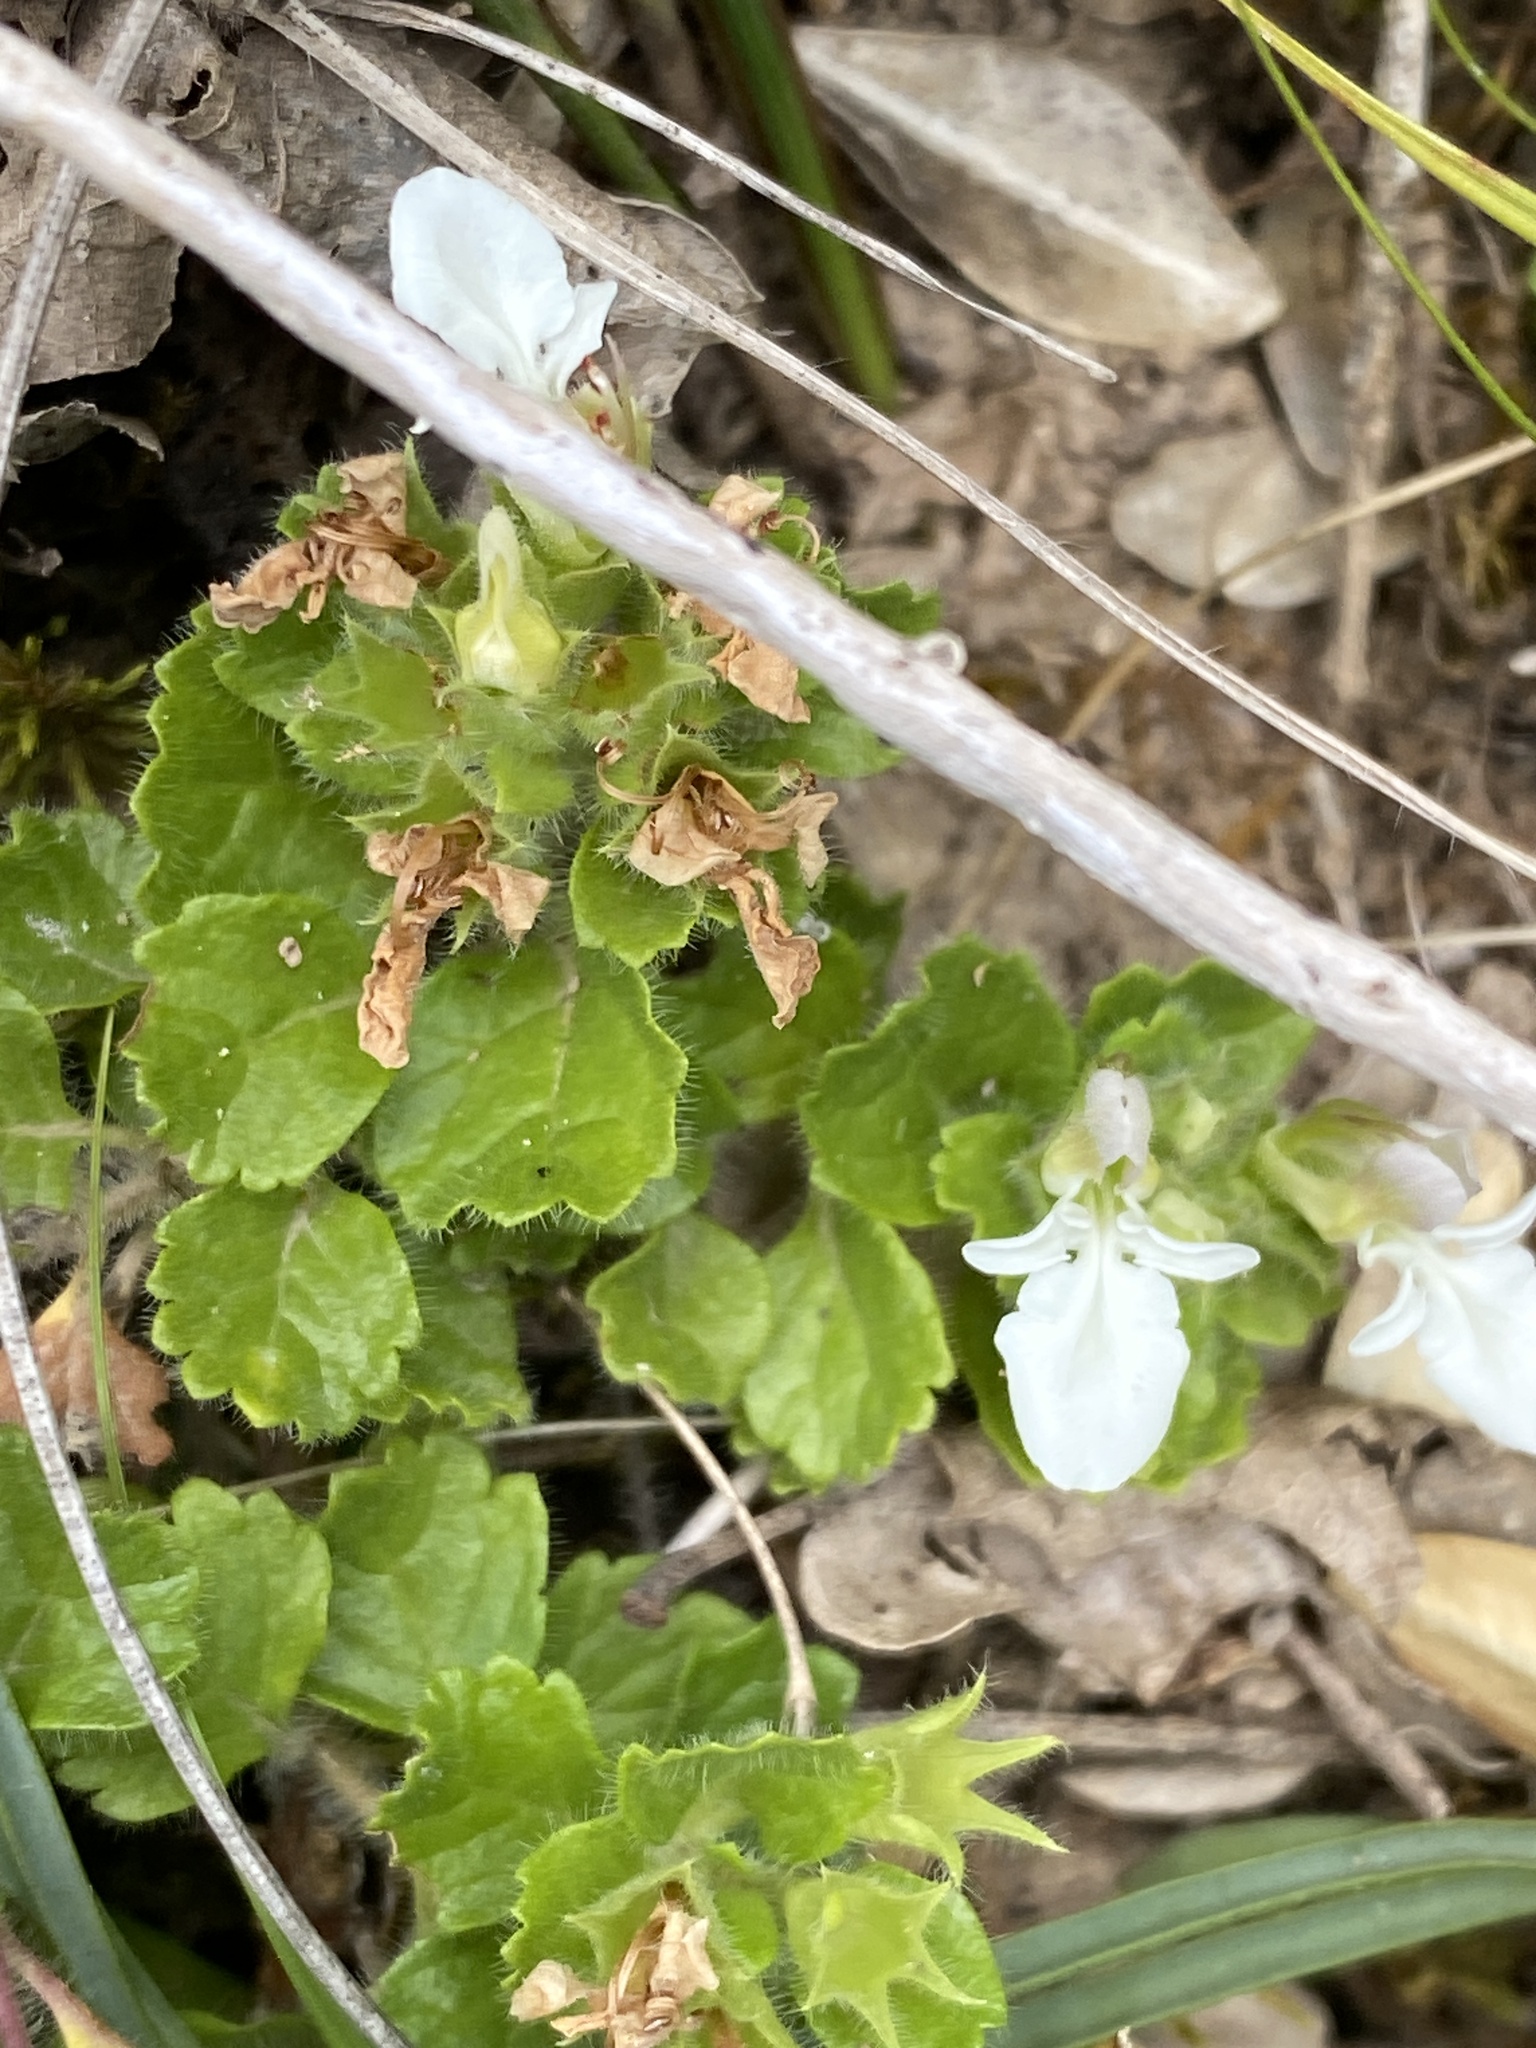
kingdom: Plantae
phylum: Tracheophyta
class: Magnoliopsida
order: Lamiales
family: Lamiaceae
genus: Teucrium
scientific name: Teucrium pyrenaicum
